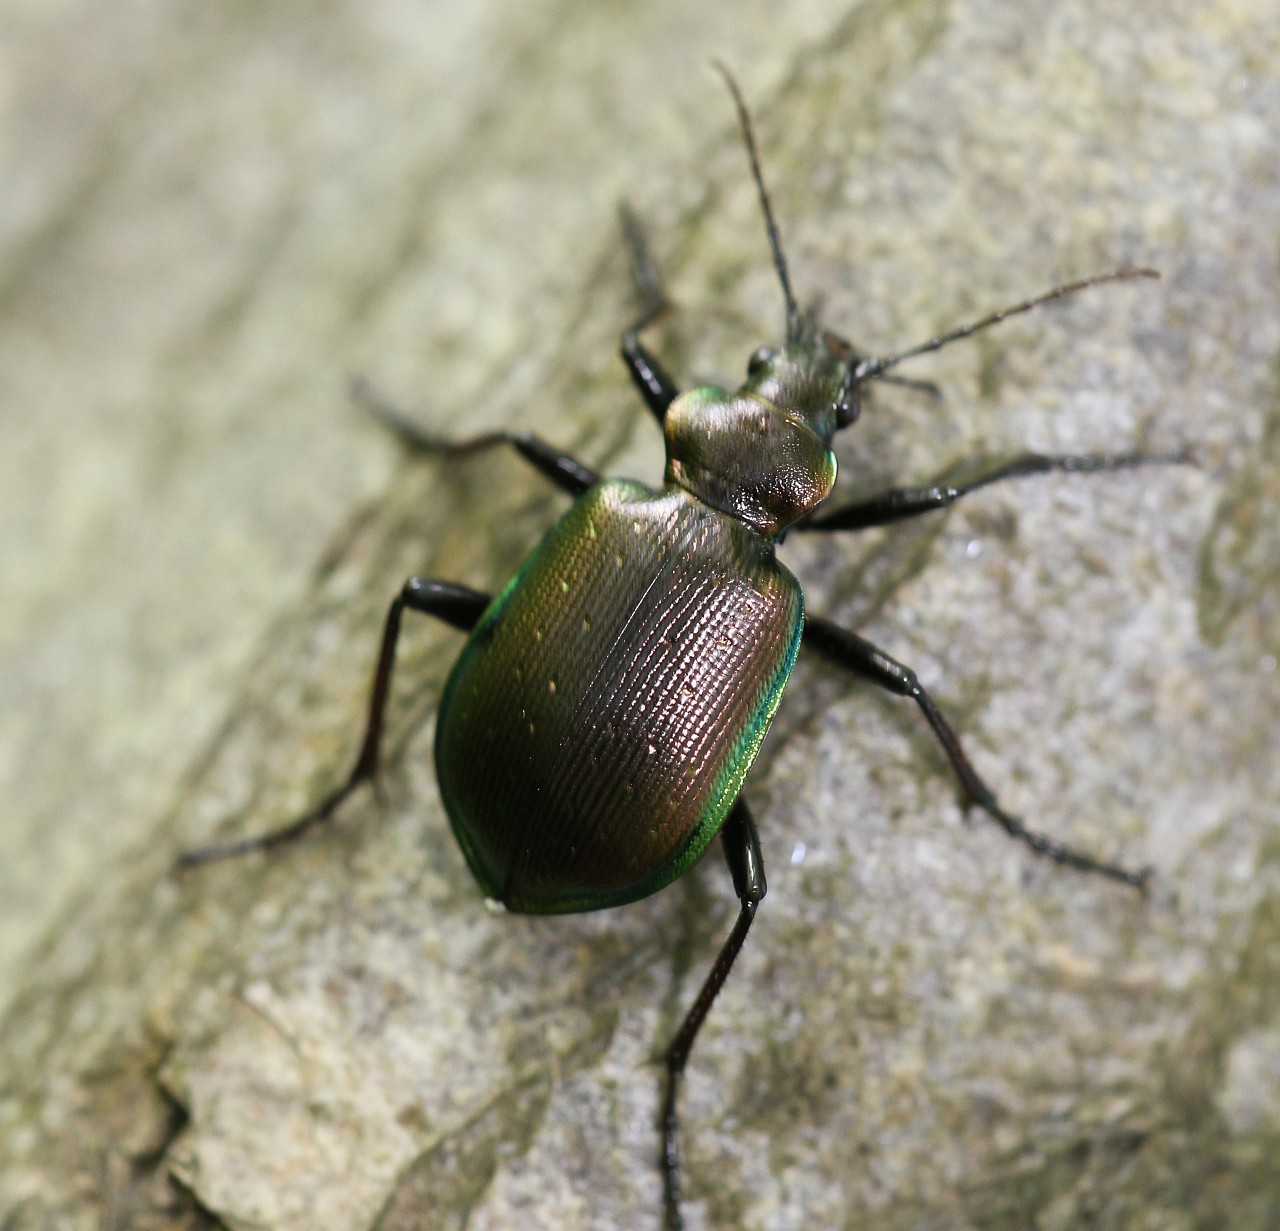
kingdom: Animalia
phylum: Arthropoda
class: Insecta
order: Coleoptera
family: Carabidae
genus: Calosoma
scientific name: Calosoma inquisitor
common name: Caterpillar-hunter
